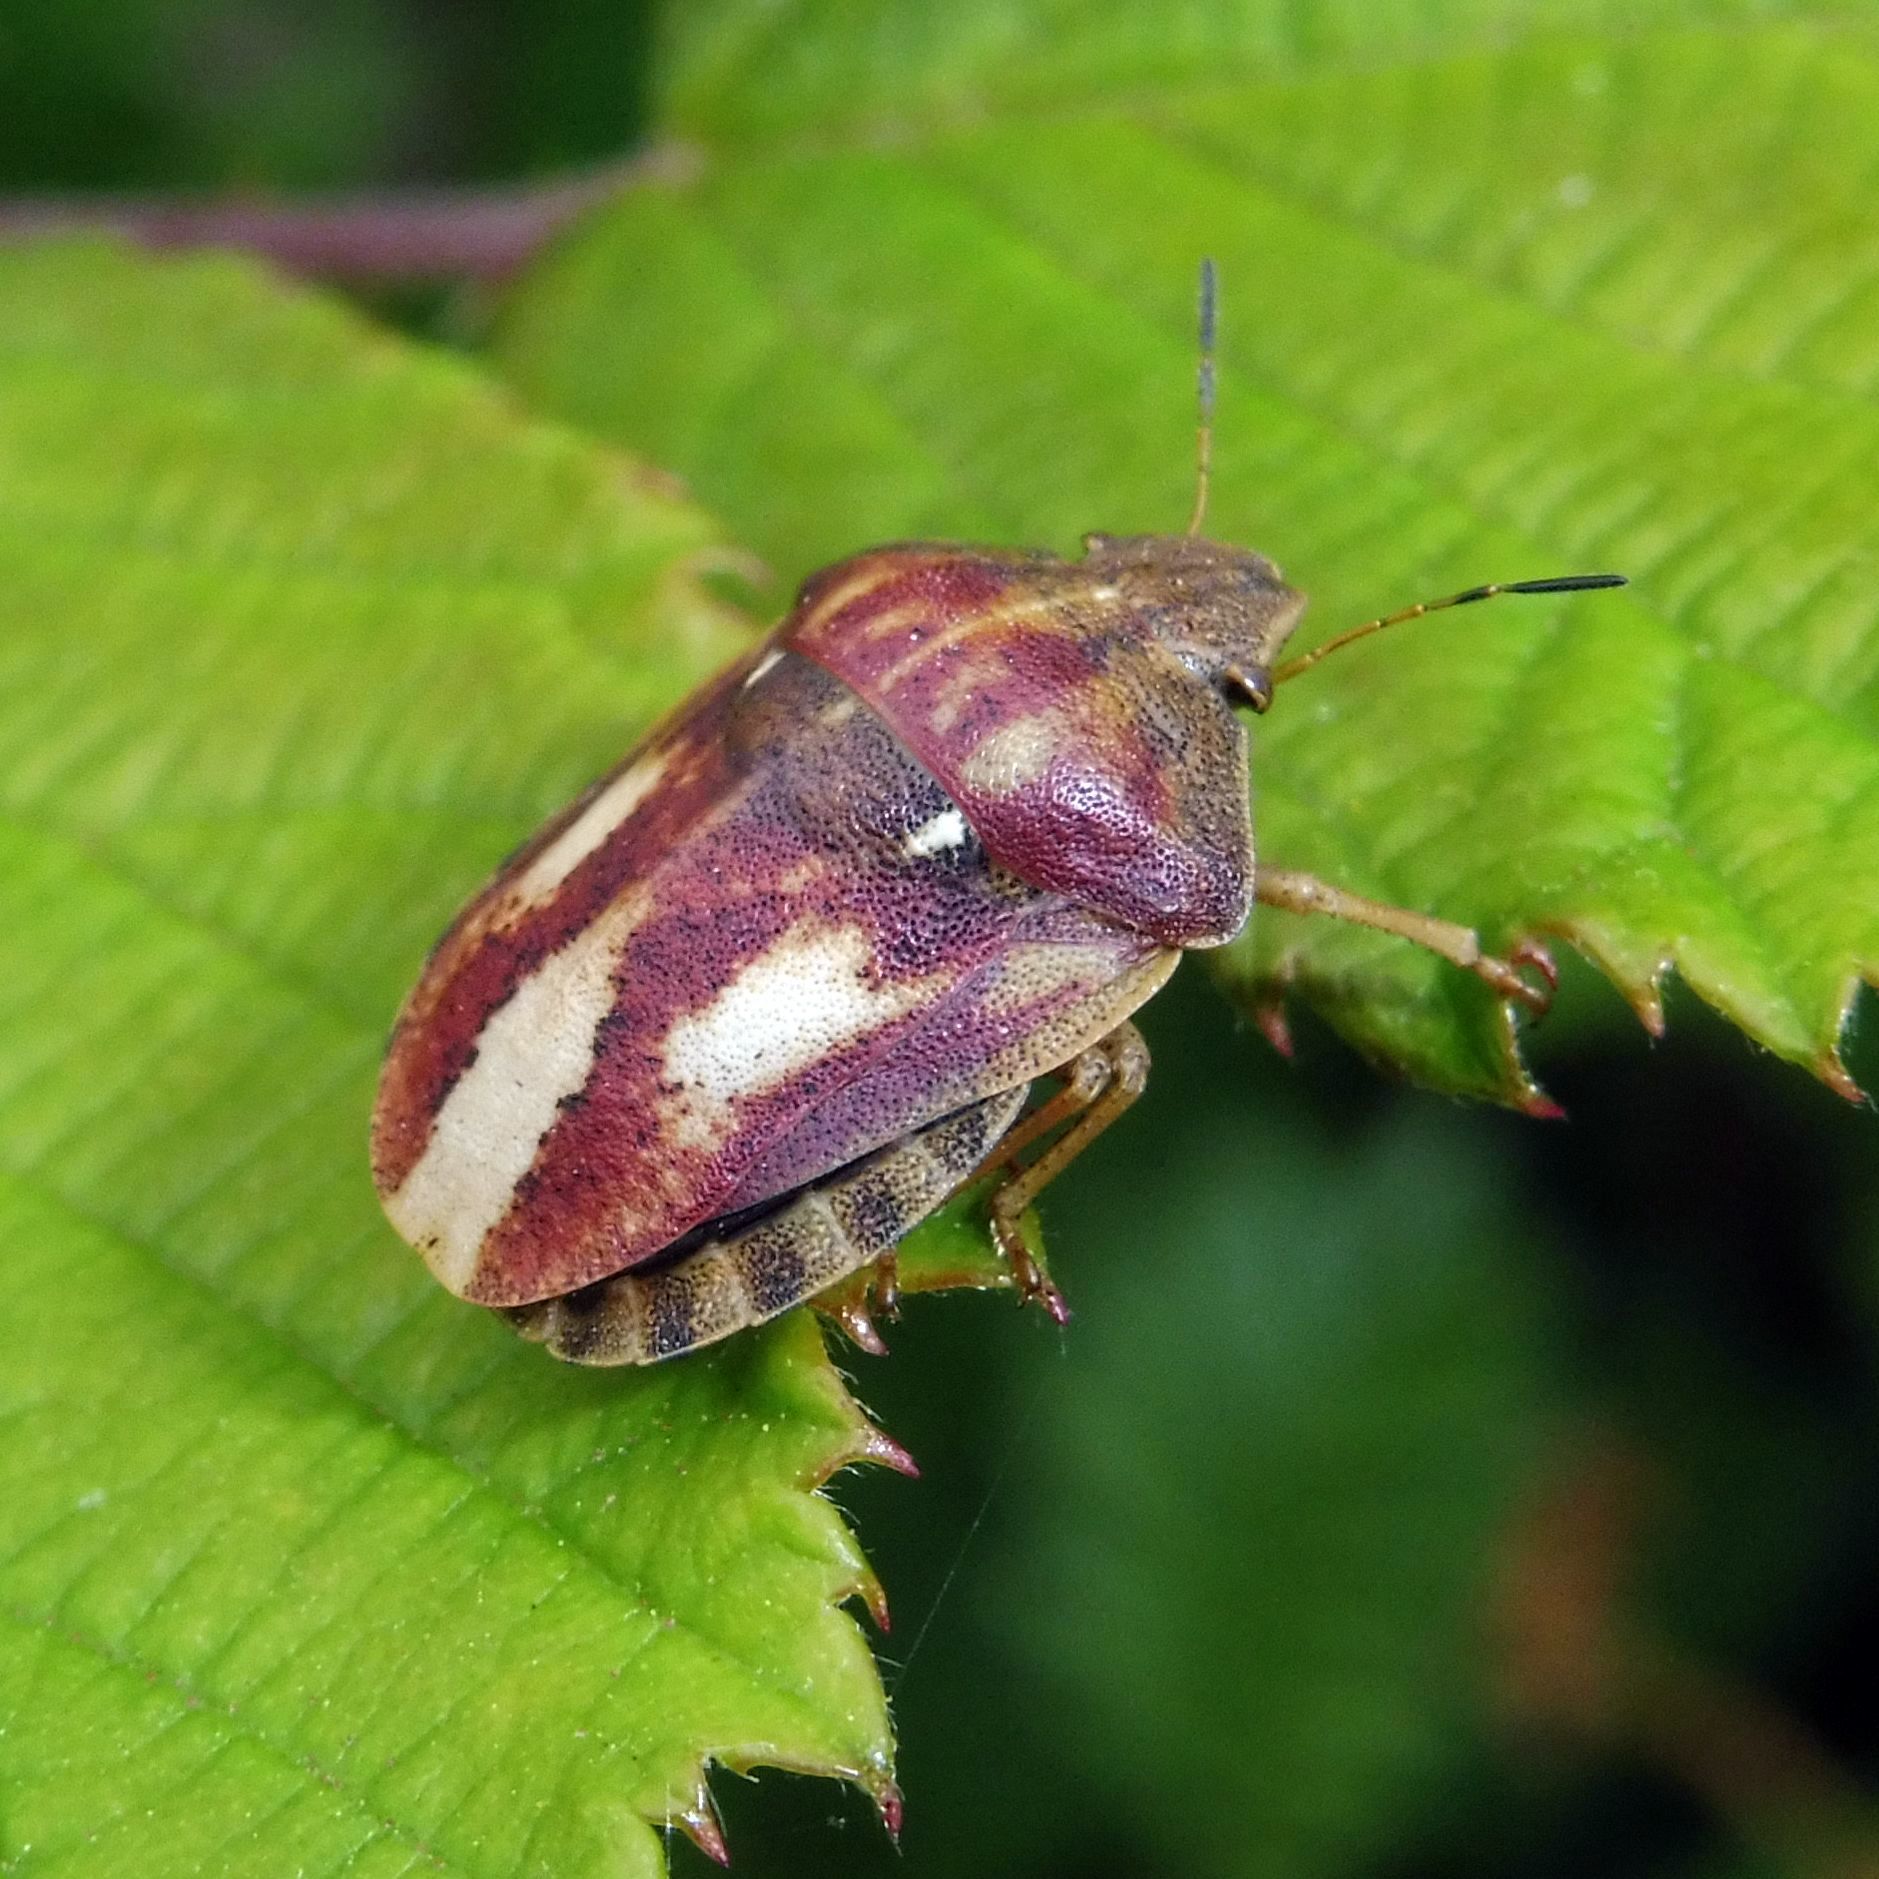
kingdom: Animalia
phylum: Arthropoda
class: Insecta
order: Hemiptera
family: Scutelleridae
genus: Eurygaster
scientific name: Eurygaster testudinaria
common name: Tortoise bug
